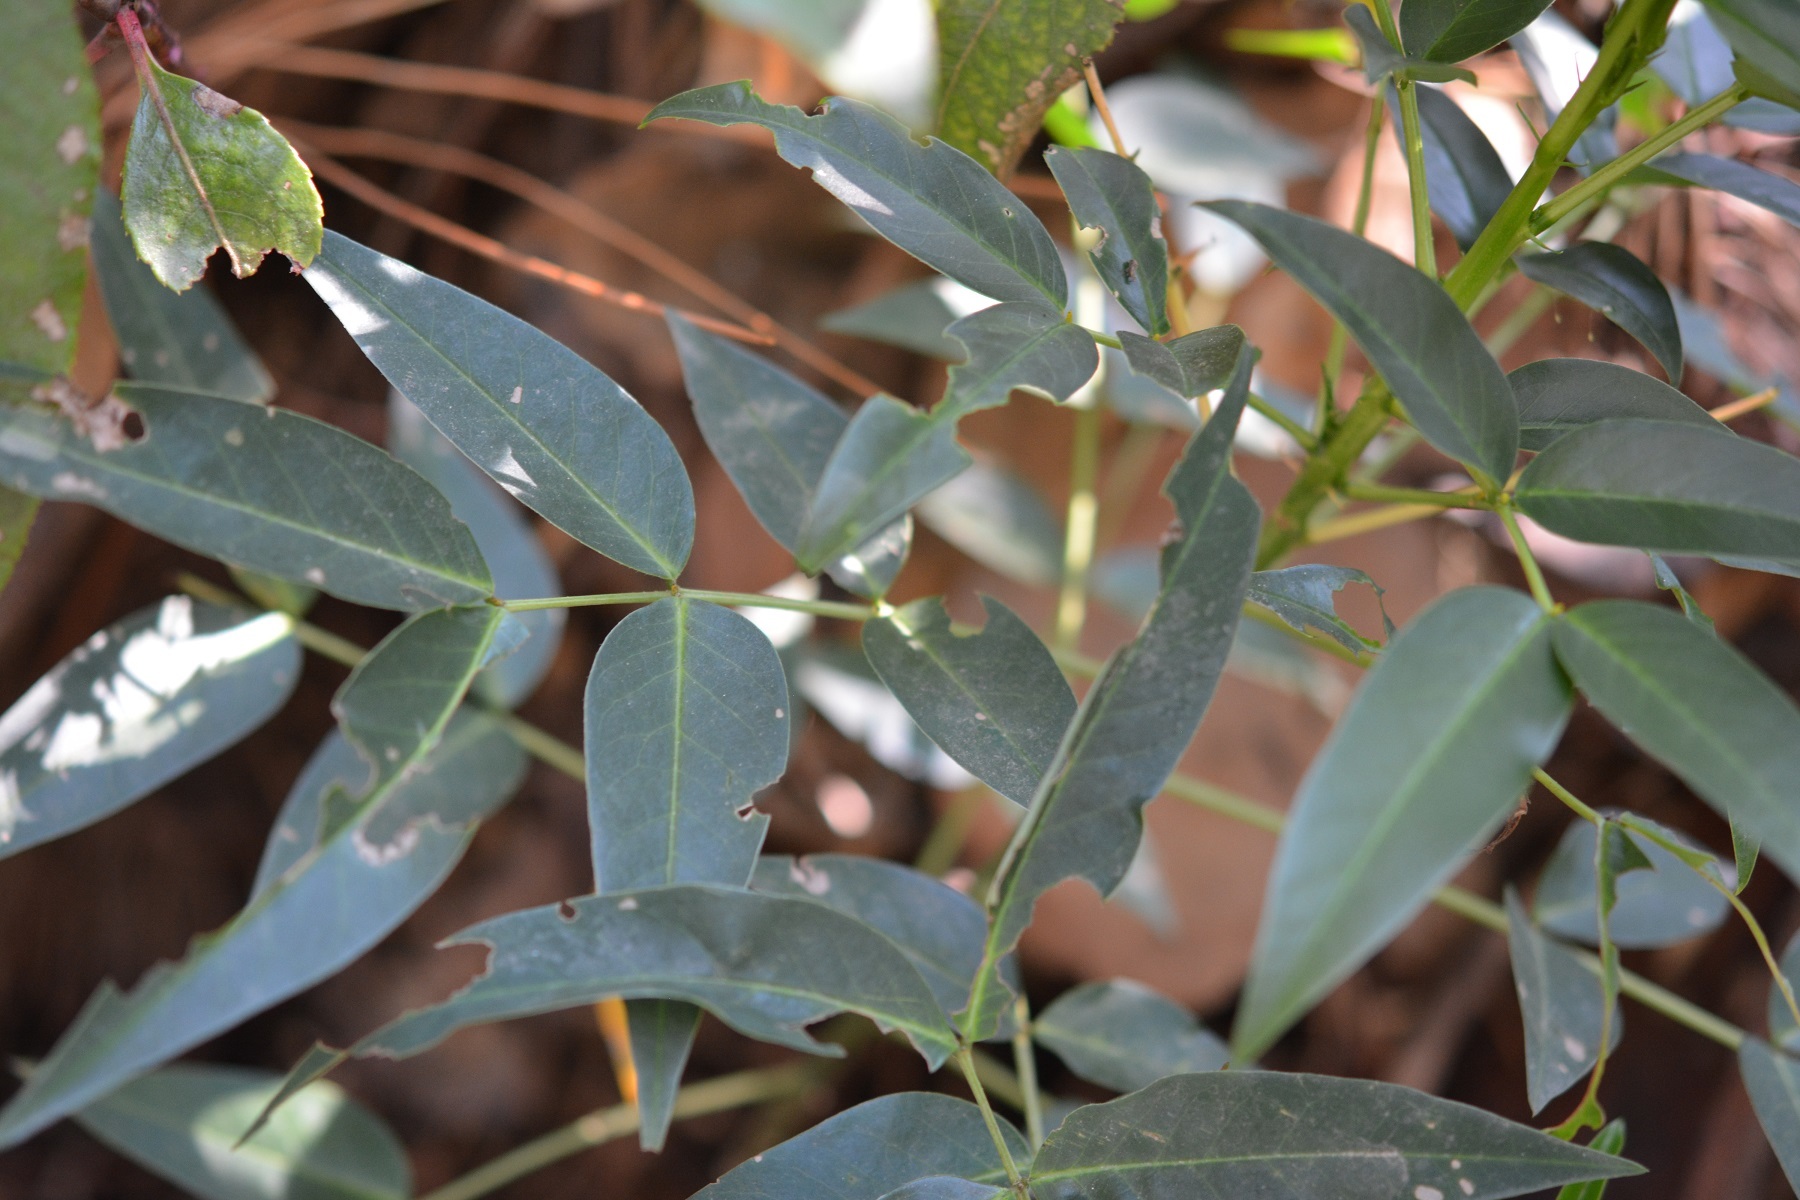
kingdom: Plantae
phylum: Tracheophyta
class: Magnoliopsida
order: Fabales
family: Fabaceae
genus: Senna
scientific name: Senna septemtrionalis
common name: Arsenic bush
